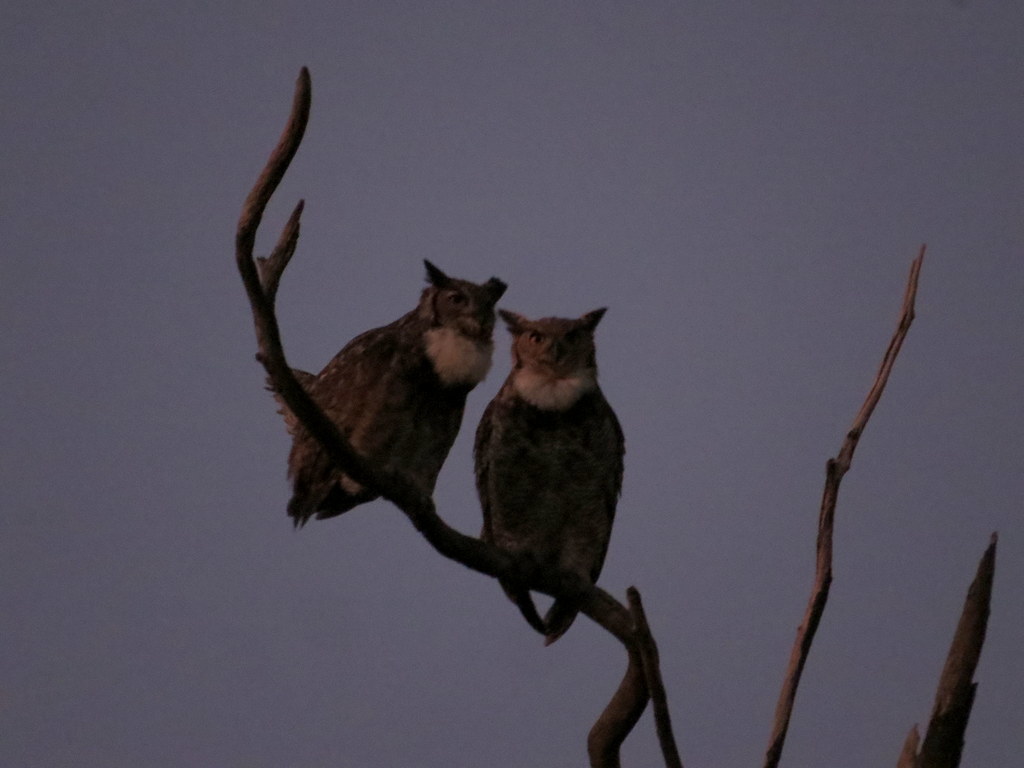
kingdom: Animalia
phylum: Chordata
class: Aves
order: Strigiformes
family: Strigidae
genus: Bubo
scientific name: Bubo virginianus
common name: Great horned owl
